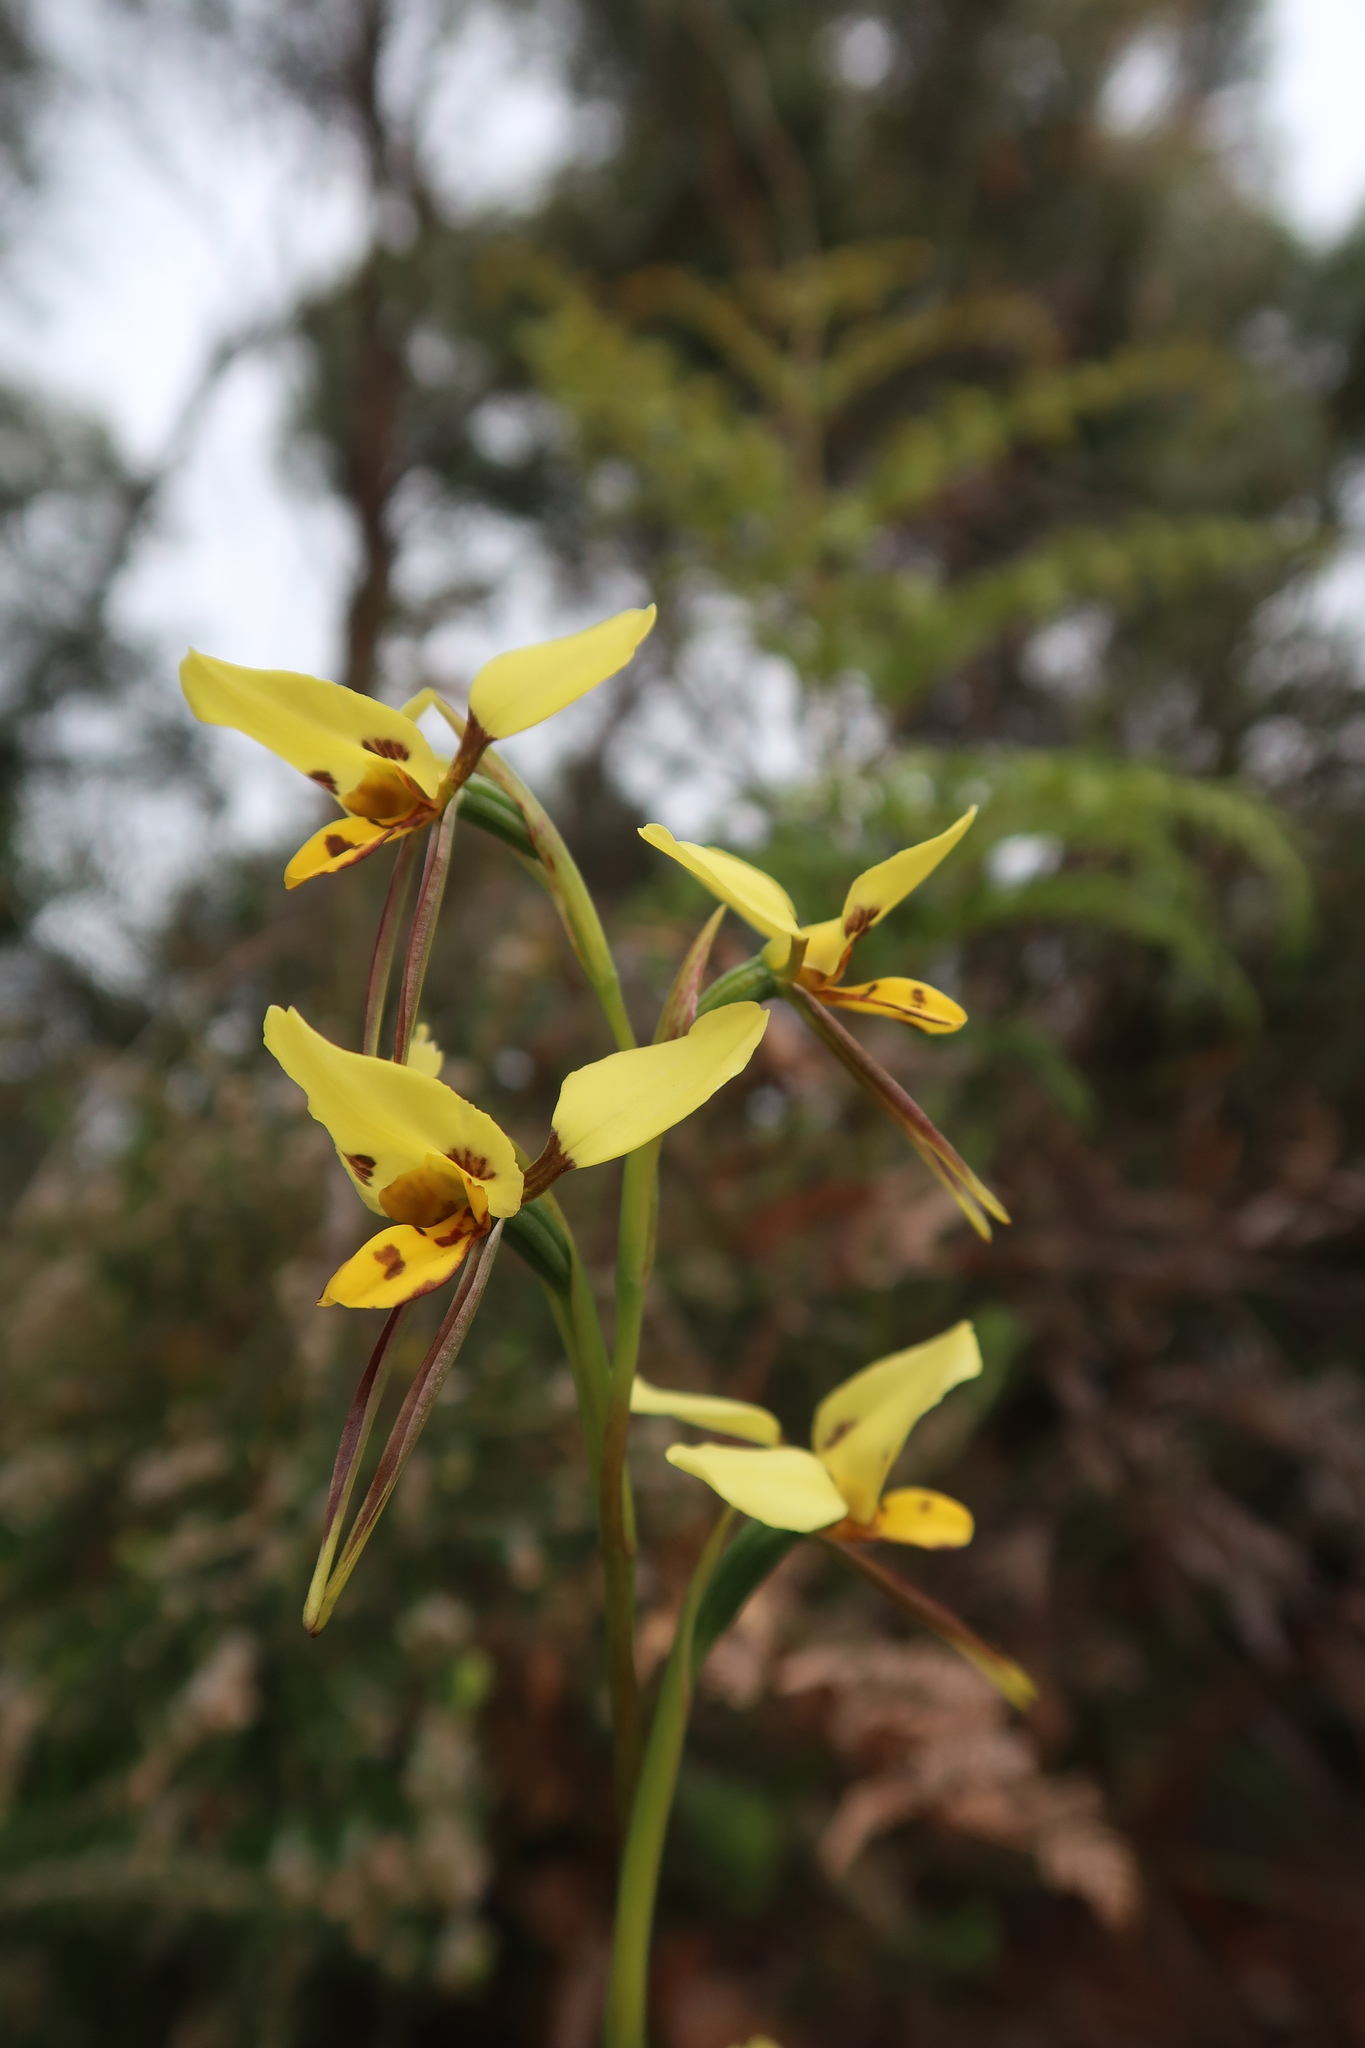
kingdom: Plantae
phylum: Tracheophyta
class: Liliopsida
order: Asparagales
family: Orchidaceae
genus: Diuris
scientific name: Diuris sulphurea
